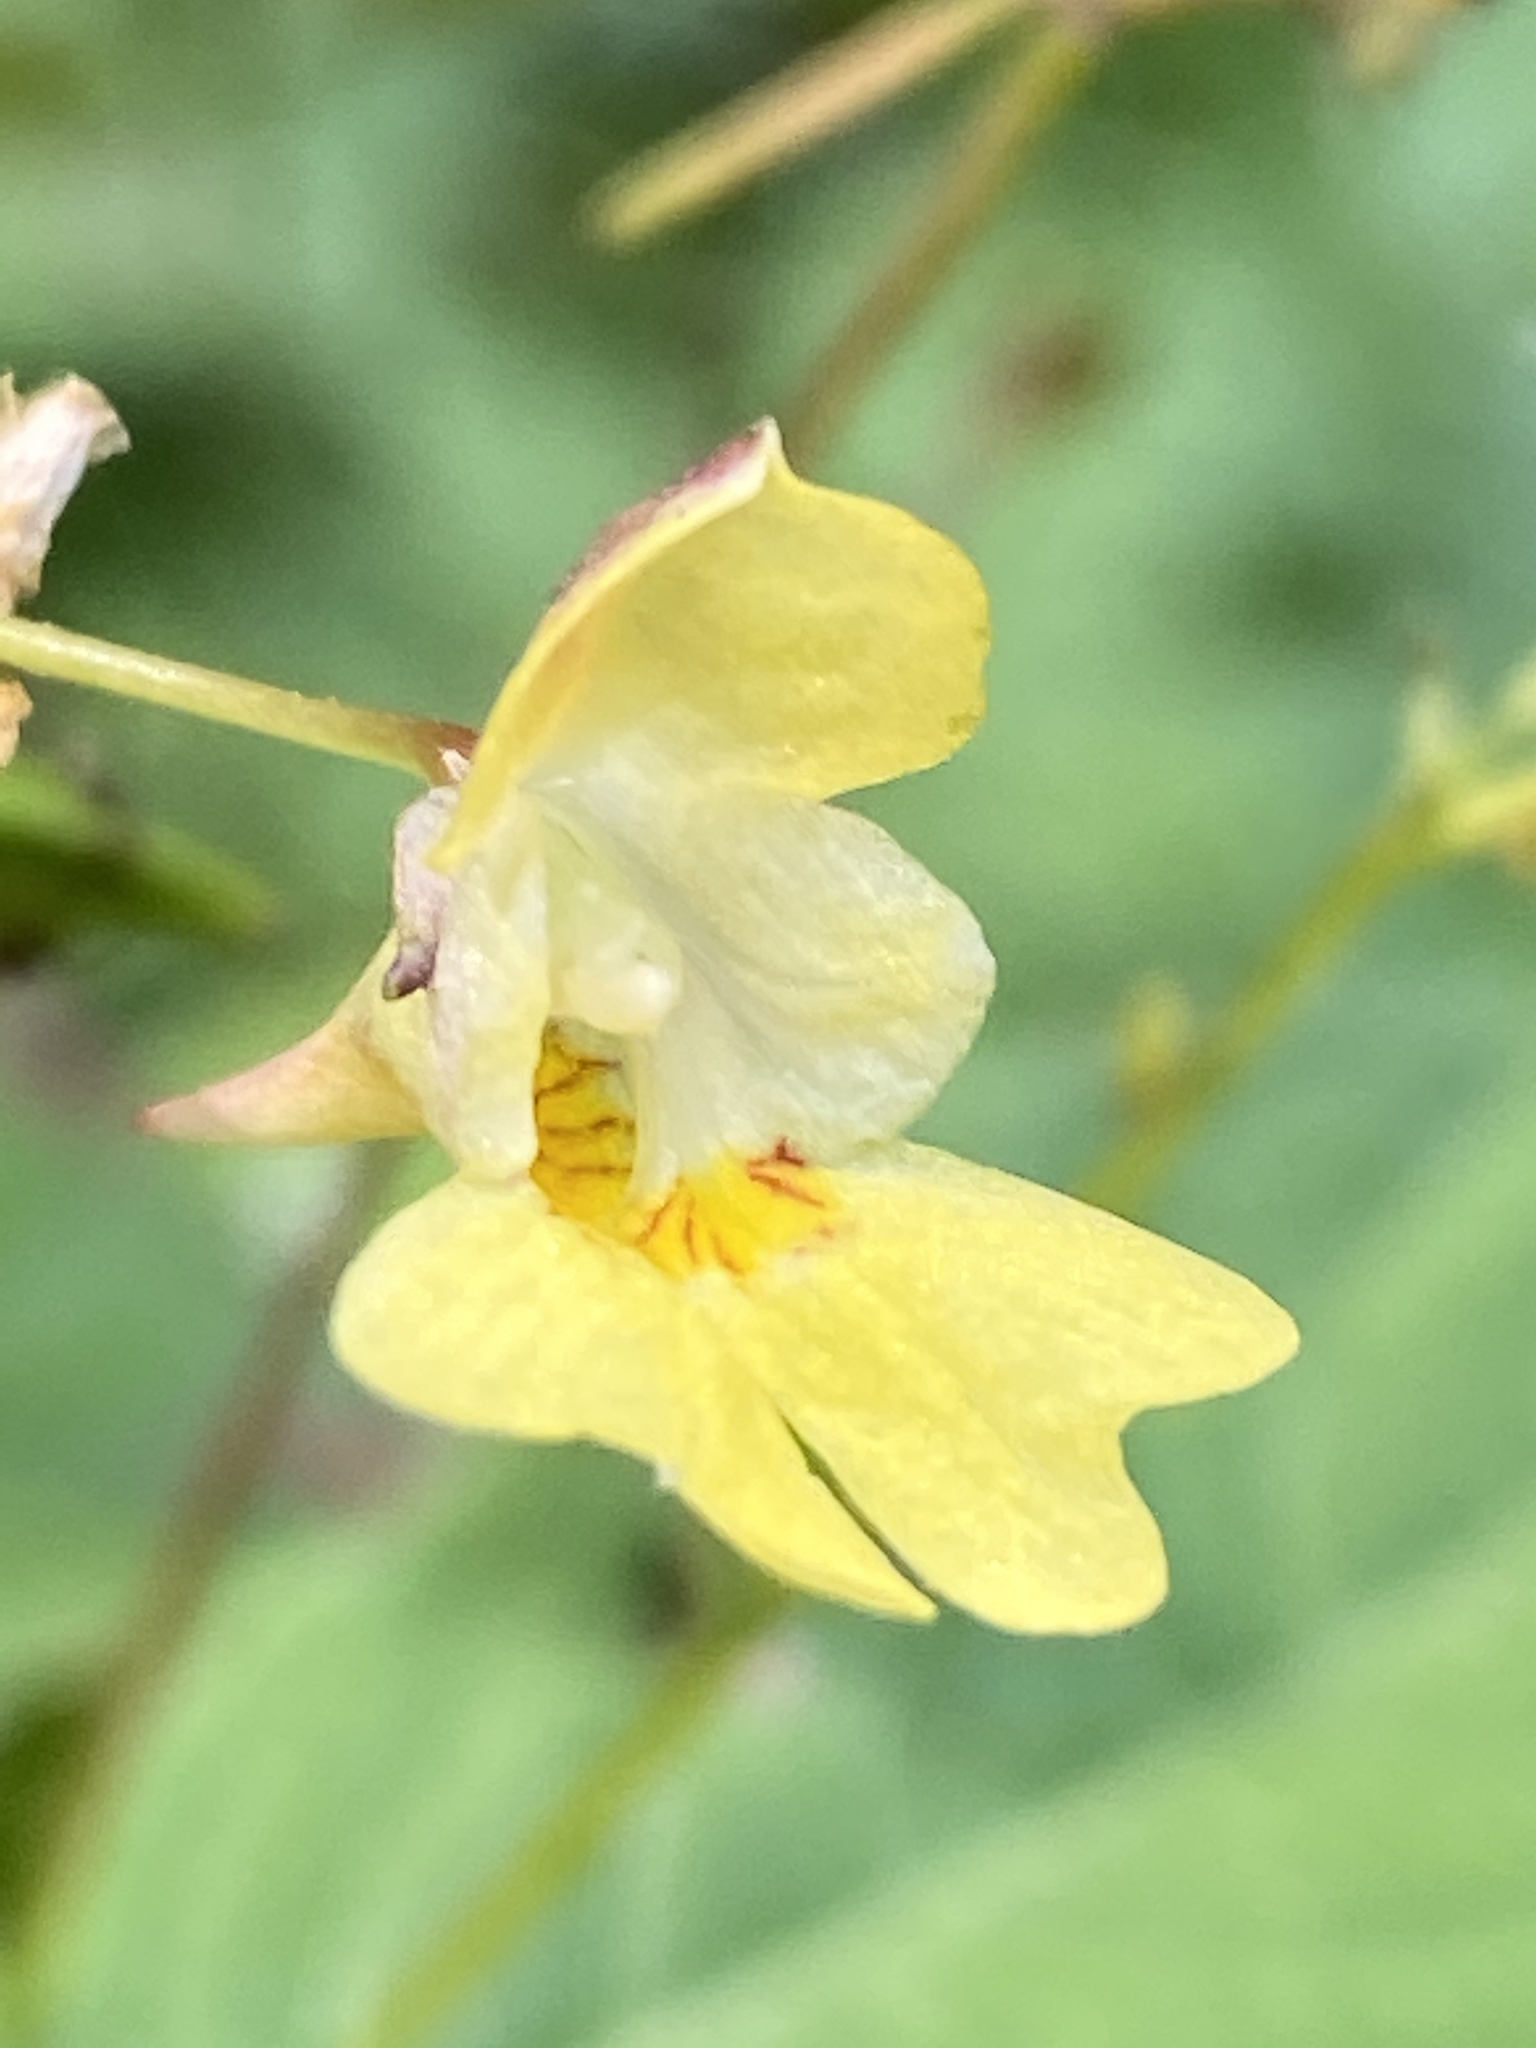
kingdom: Plantae
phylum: Tracheophyta
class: Magnoliopsida
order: Ericales
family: Balsaminaceae
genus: Impatiens
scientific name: Impatiens parviflora
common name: Small balsam
